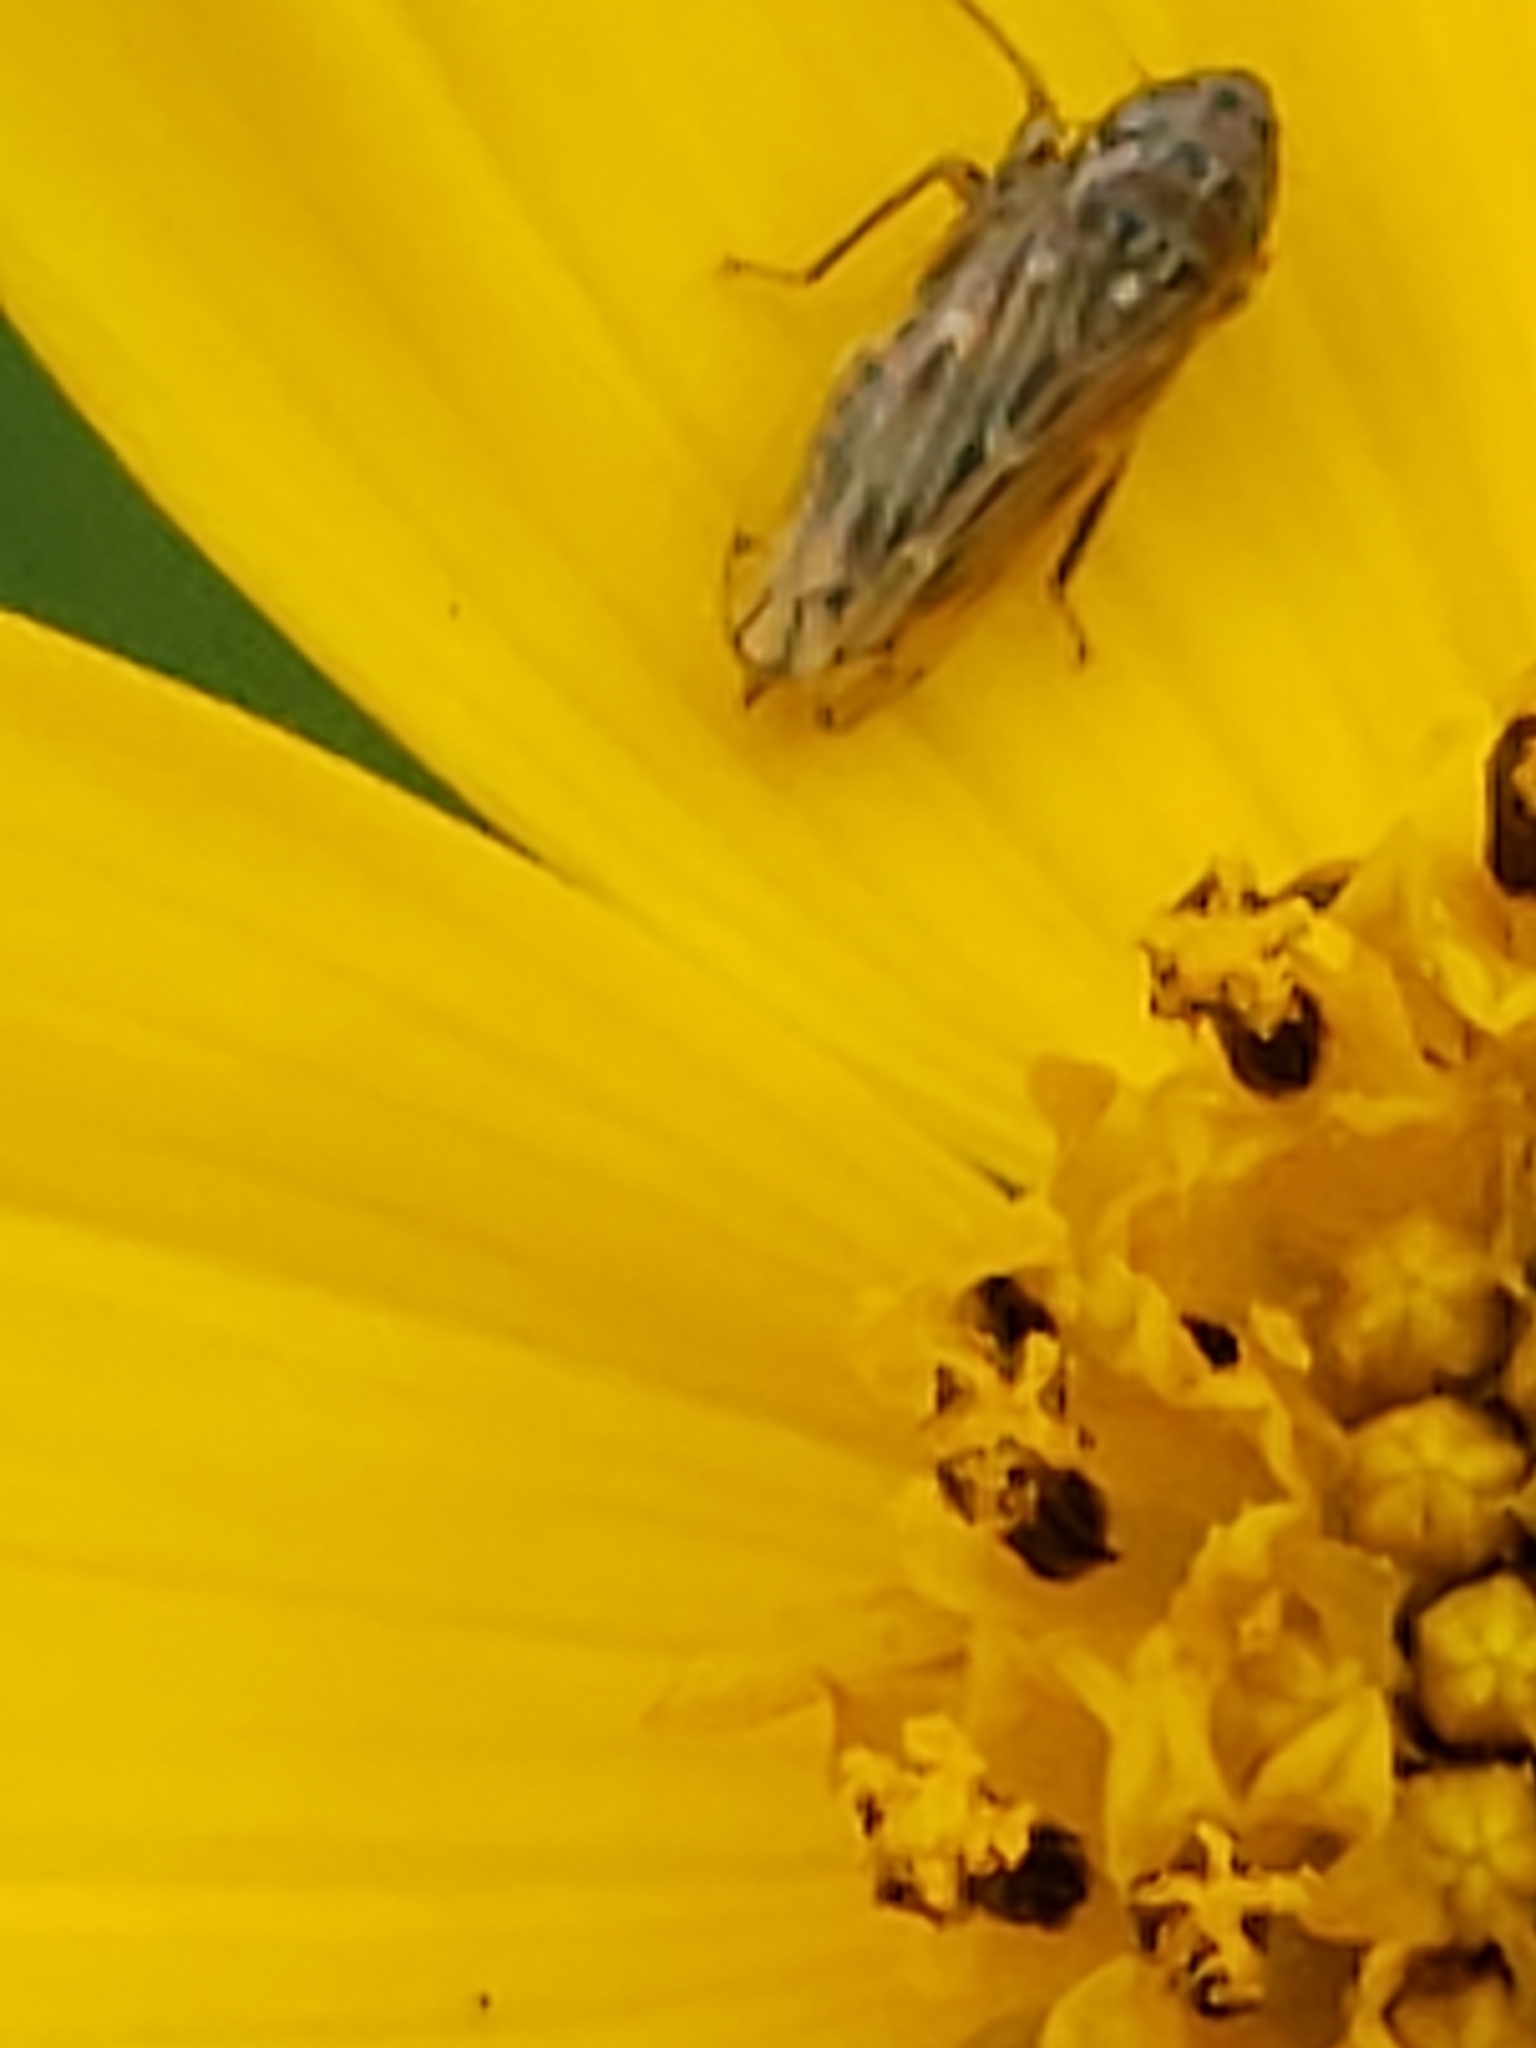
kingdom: Animalia
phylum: Arthropoda
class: Insecta
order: Hemiptera
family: Cicadellidae
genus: Stirellus
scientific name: Stirellus bicolor
